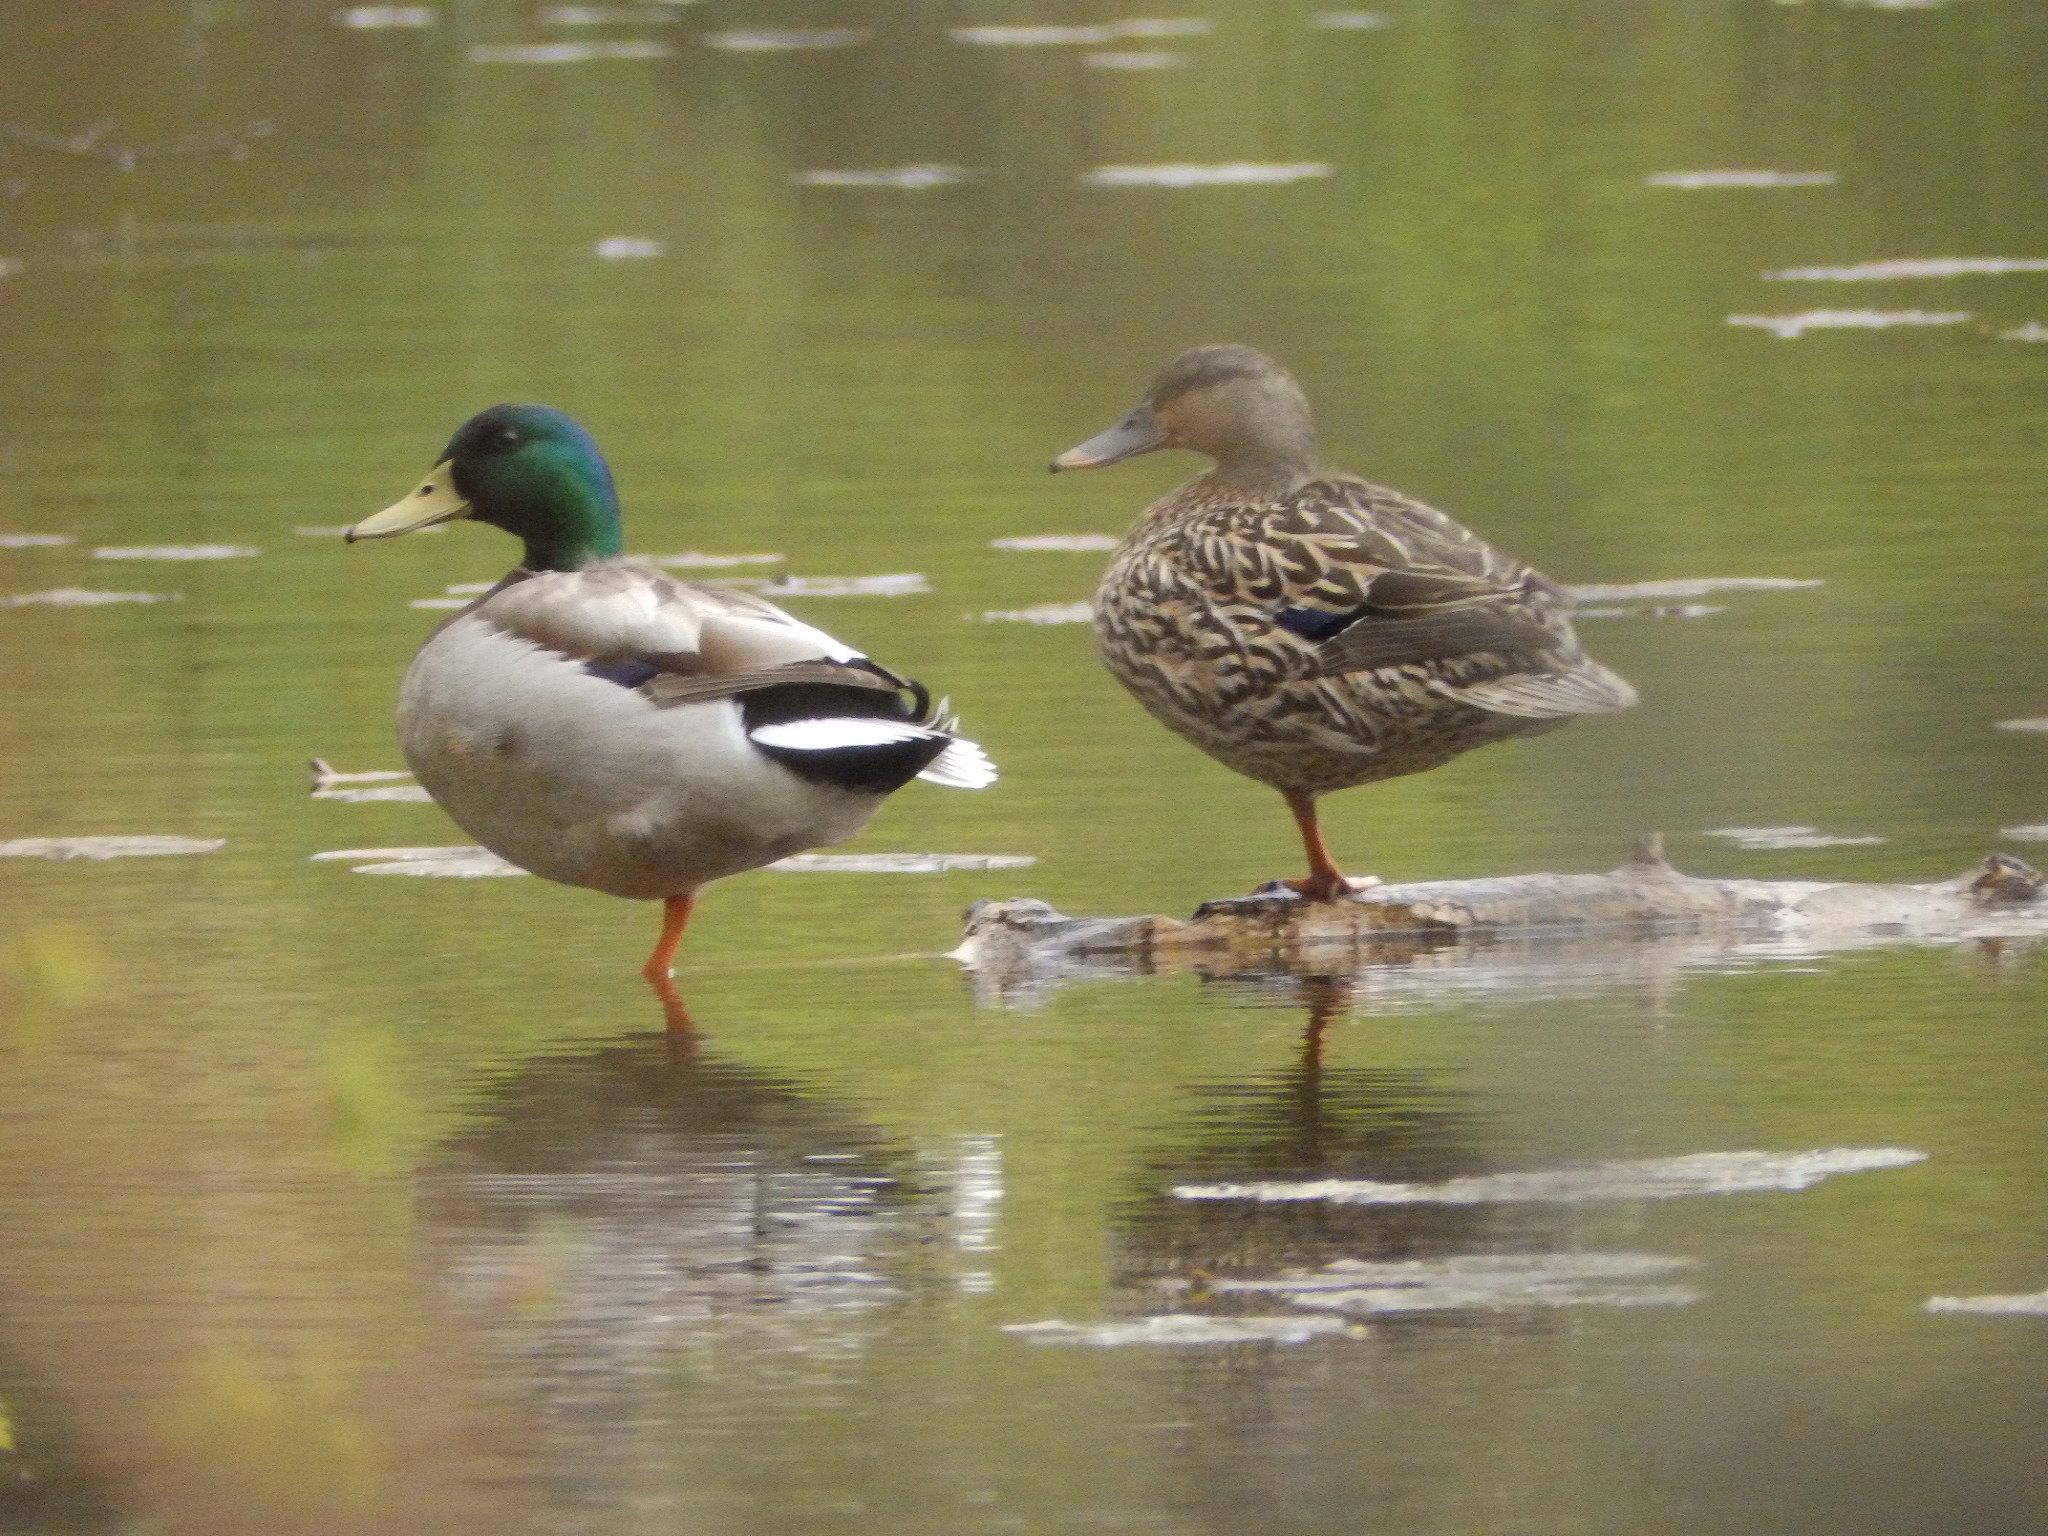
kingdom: Animalia
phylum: Chordata
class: Aves
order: Anseriformes
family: Anatidae
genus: Anas
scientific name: Anas platyrhynchos
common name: Mallard
